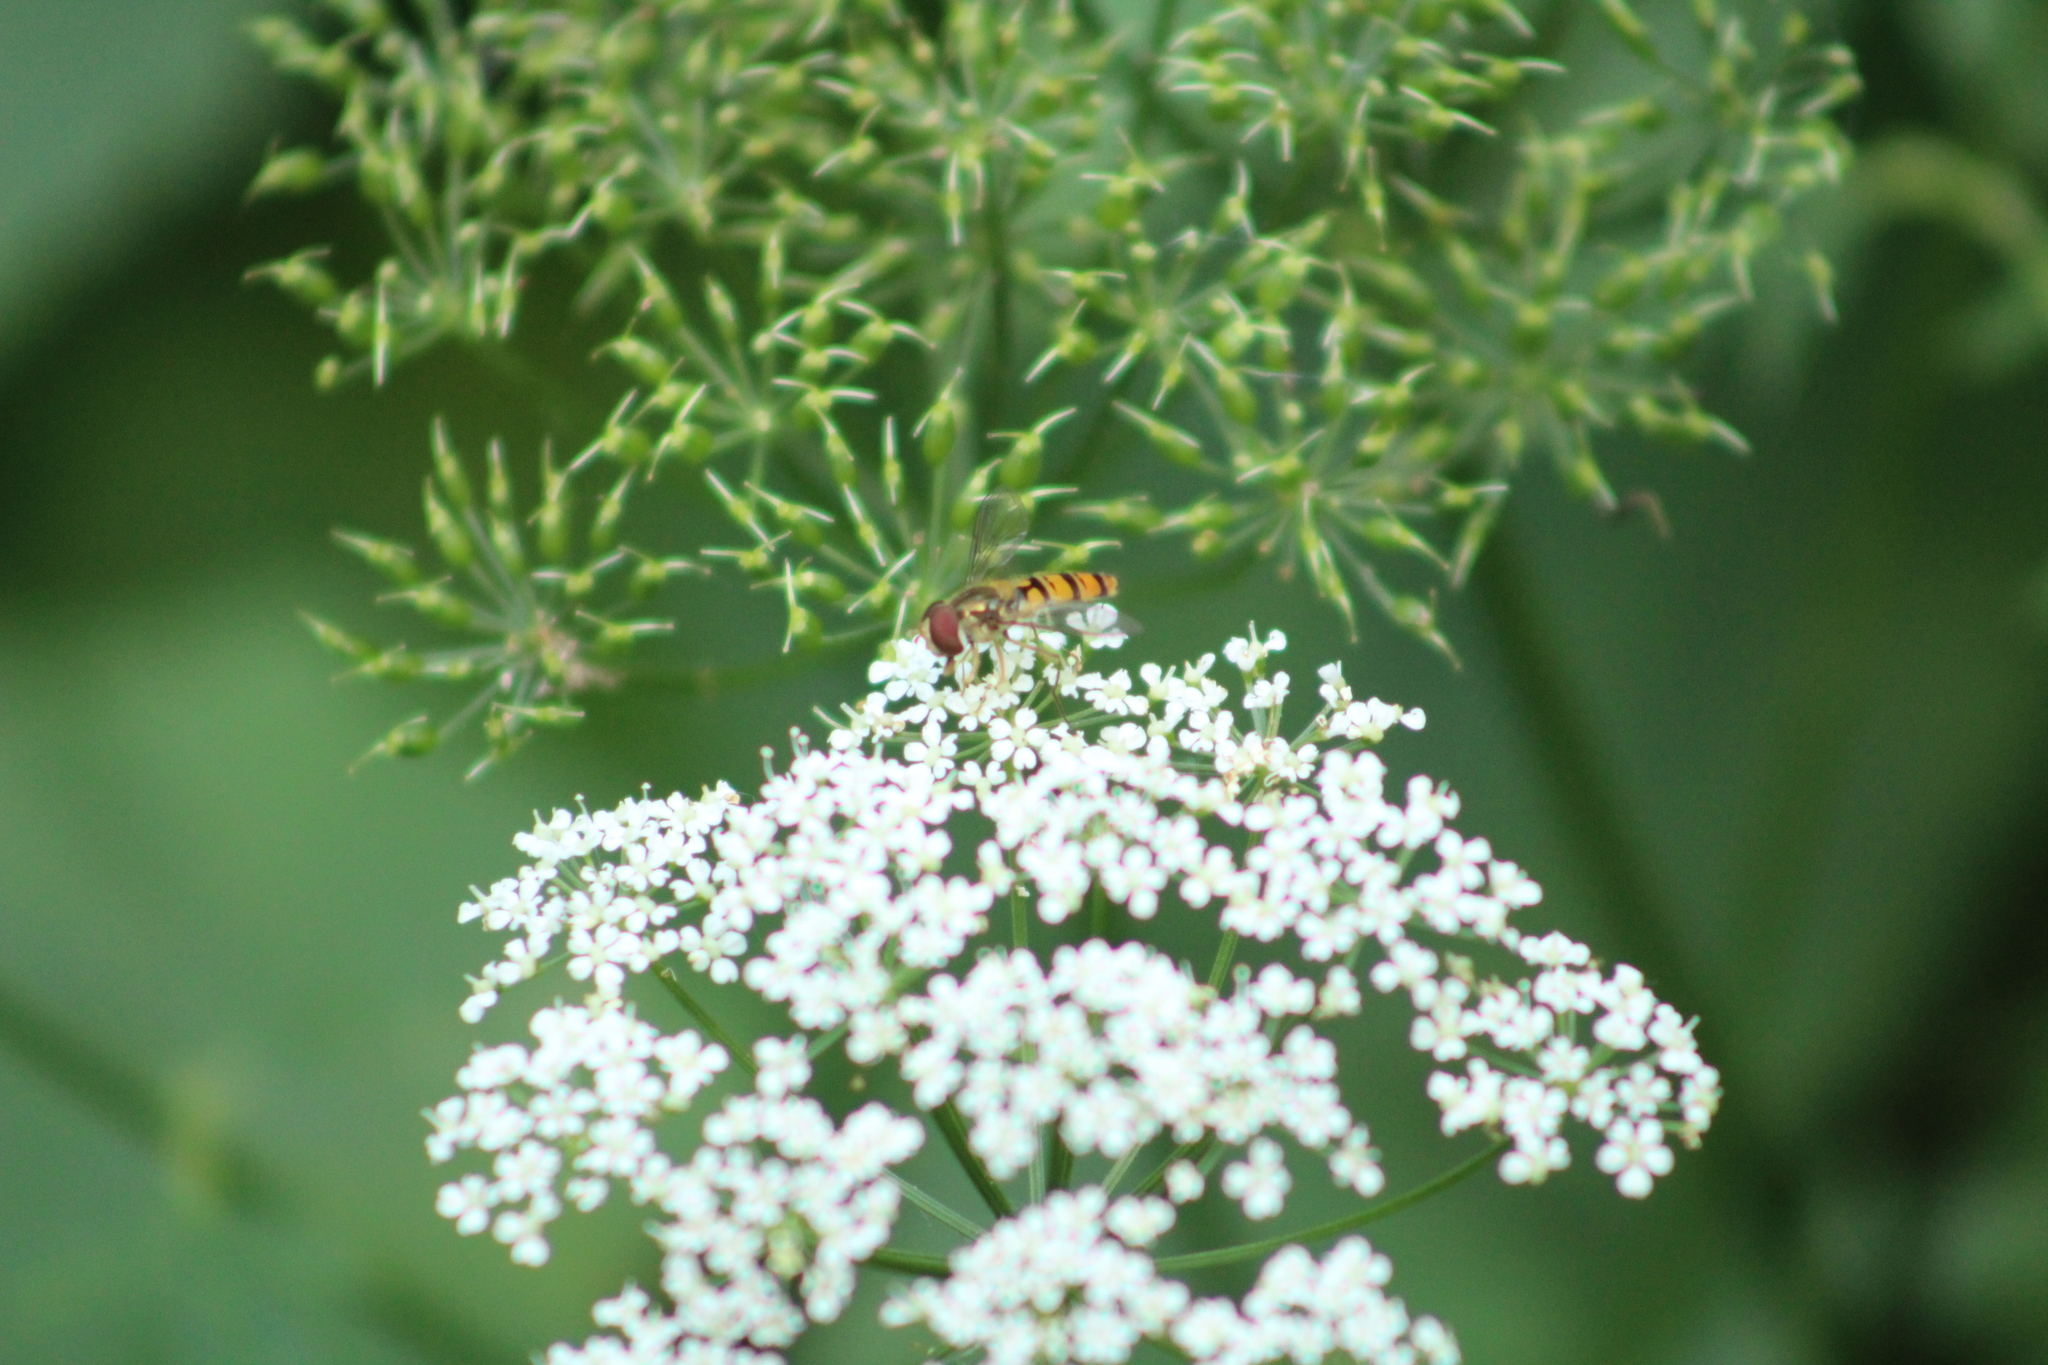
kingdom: Animalia
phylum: Arthropoda
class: Insecta
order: Diptera
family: Syrphidae
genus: Episyrphus
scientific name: Episyrphus balteatus
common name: Marmalade hoverfly
